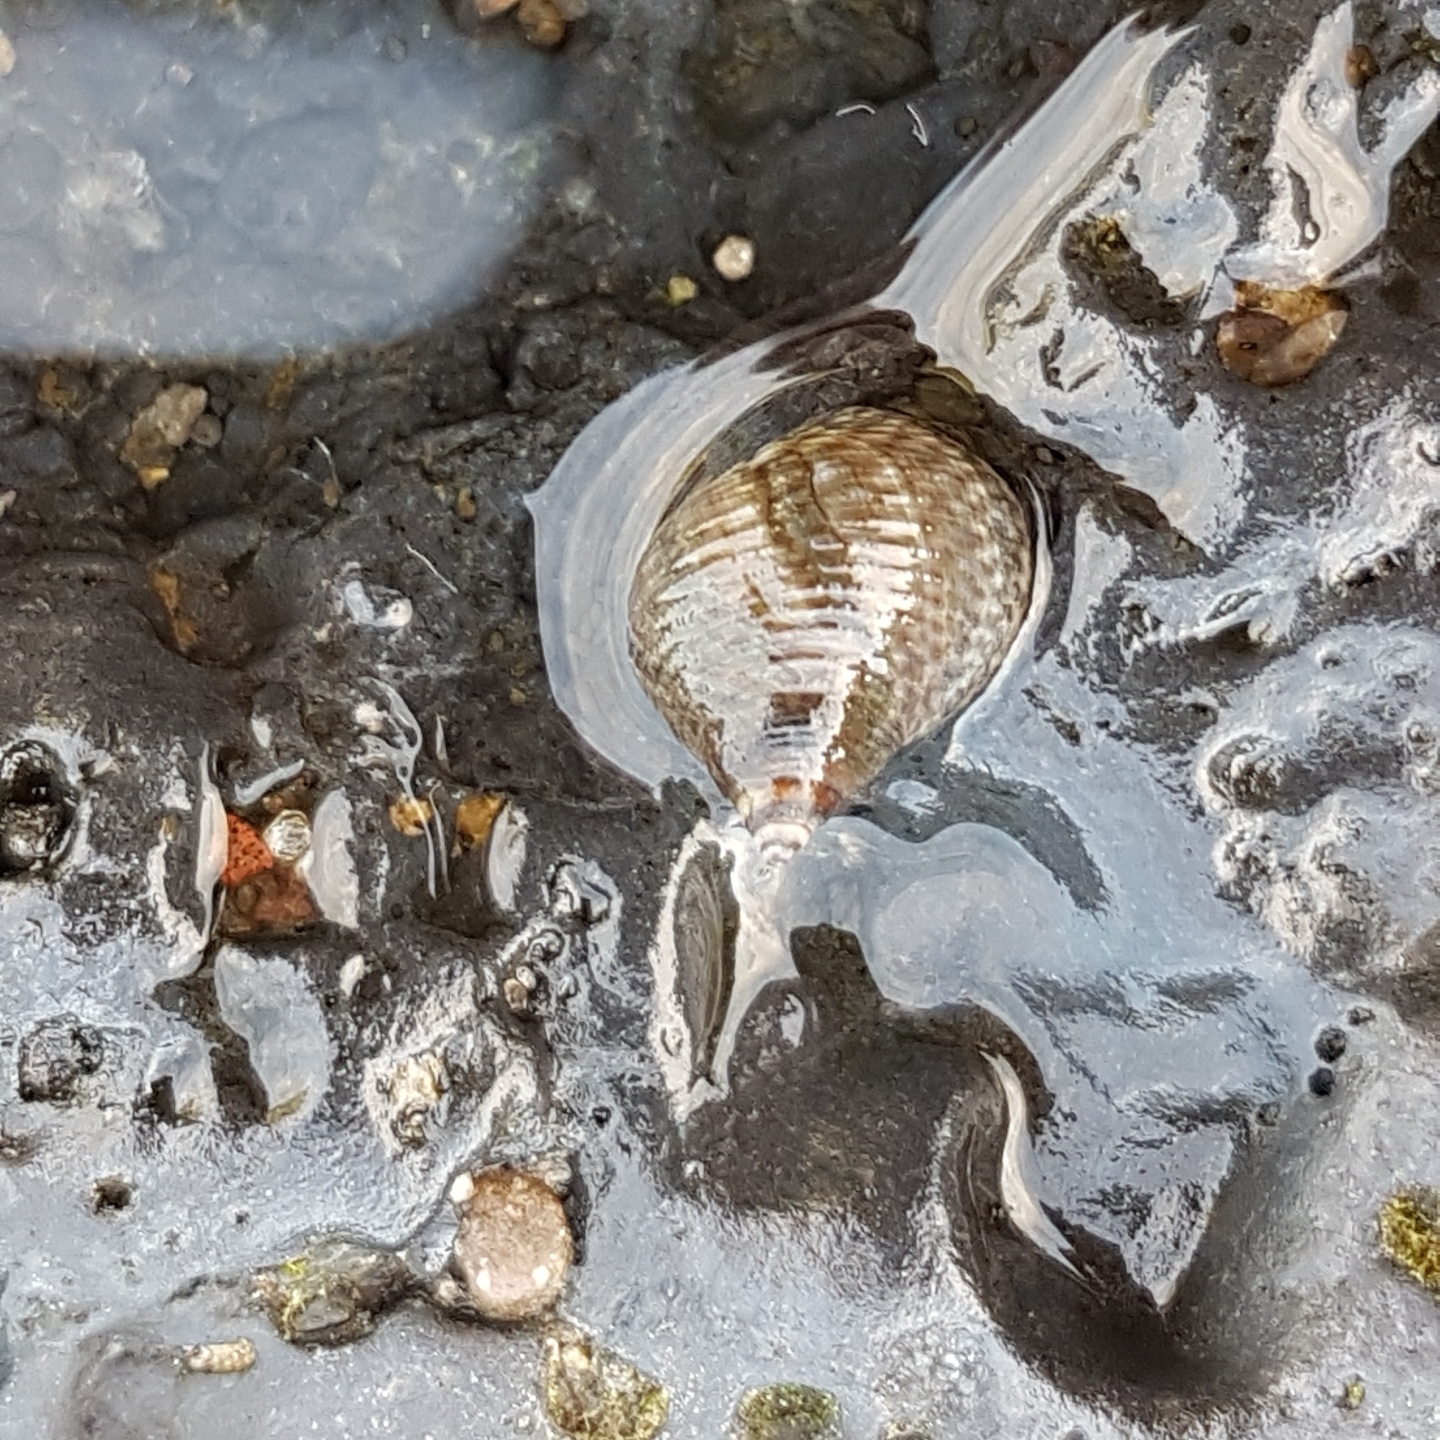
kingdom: Animalia
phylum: Mollusca
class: Gastropoda
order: Littorinimorpha
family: Littorinidae
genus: Tectarius
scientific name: Tectarius striatus
